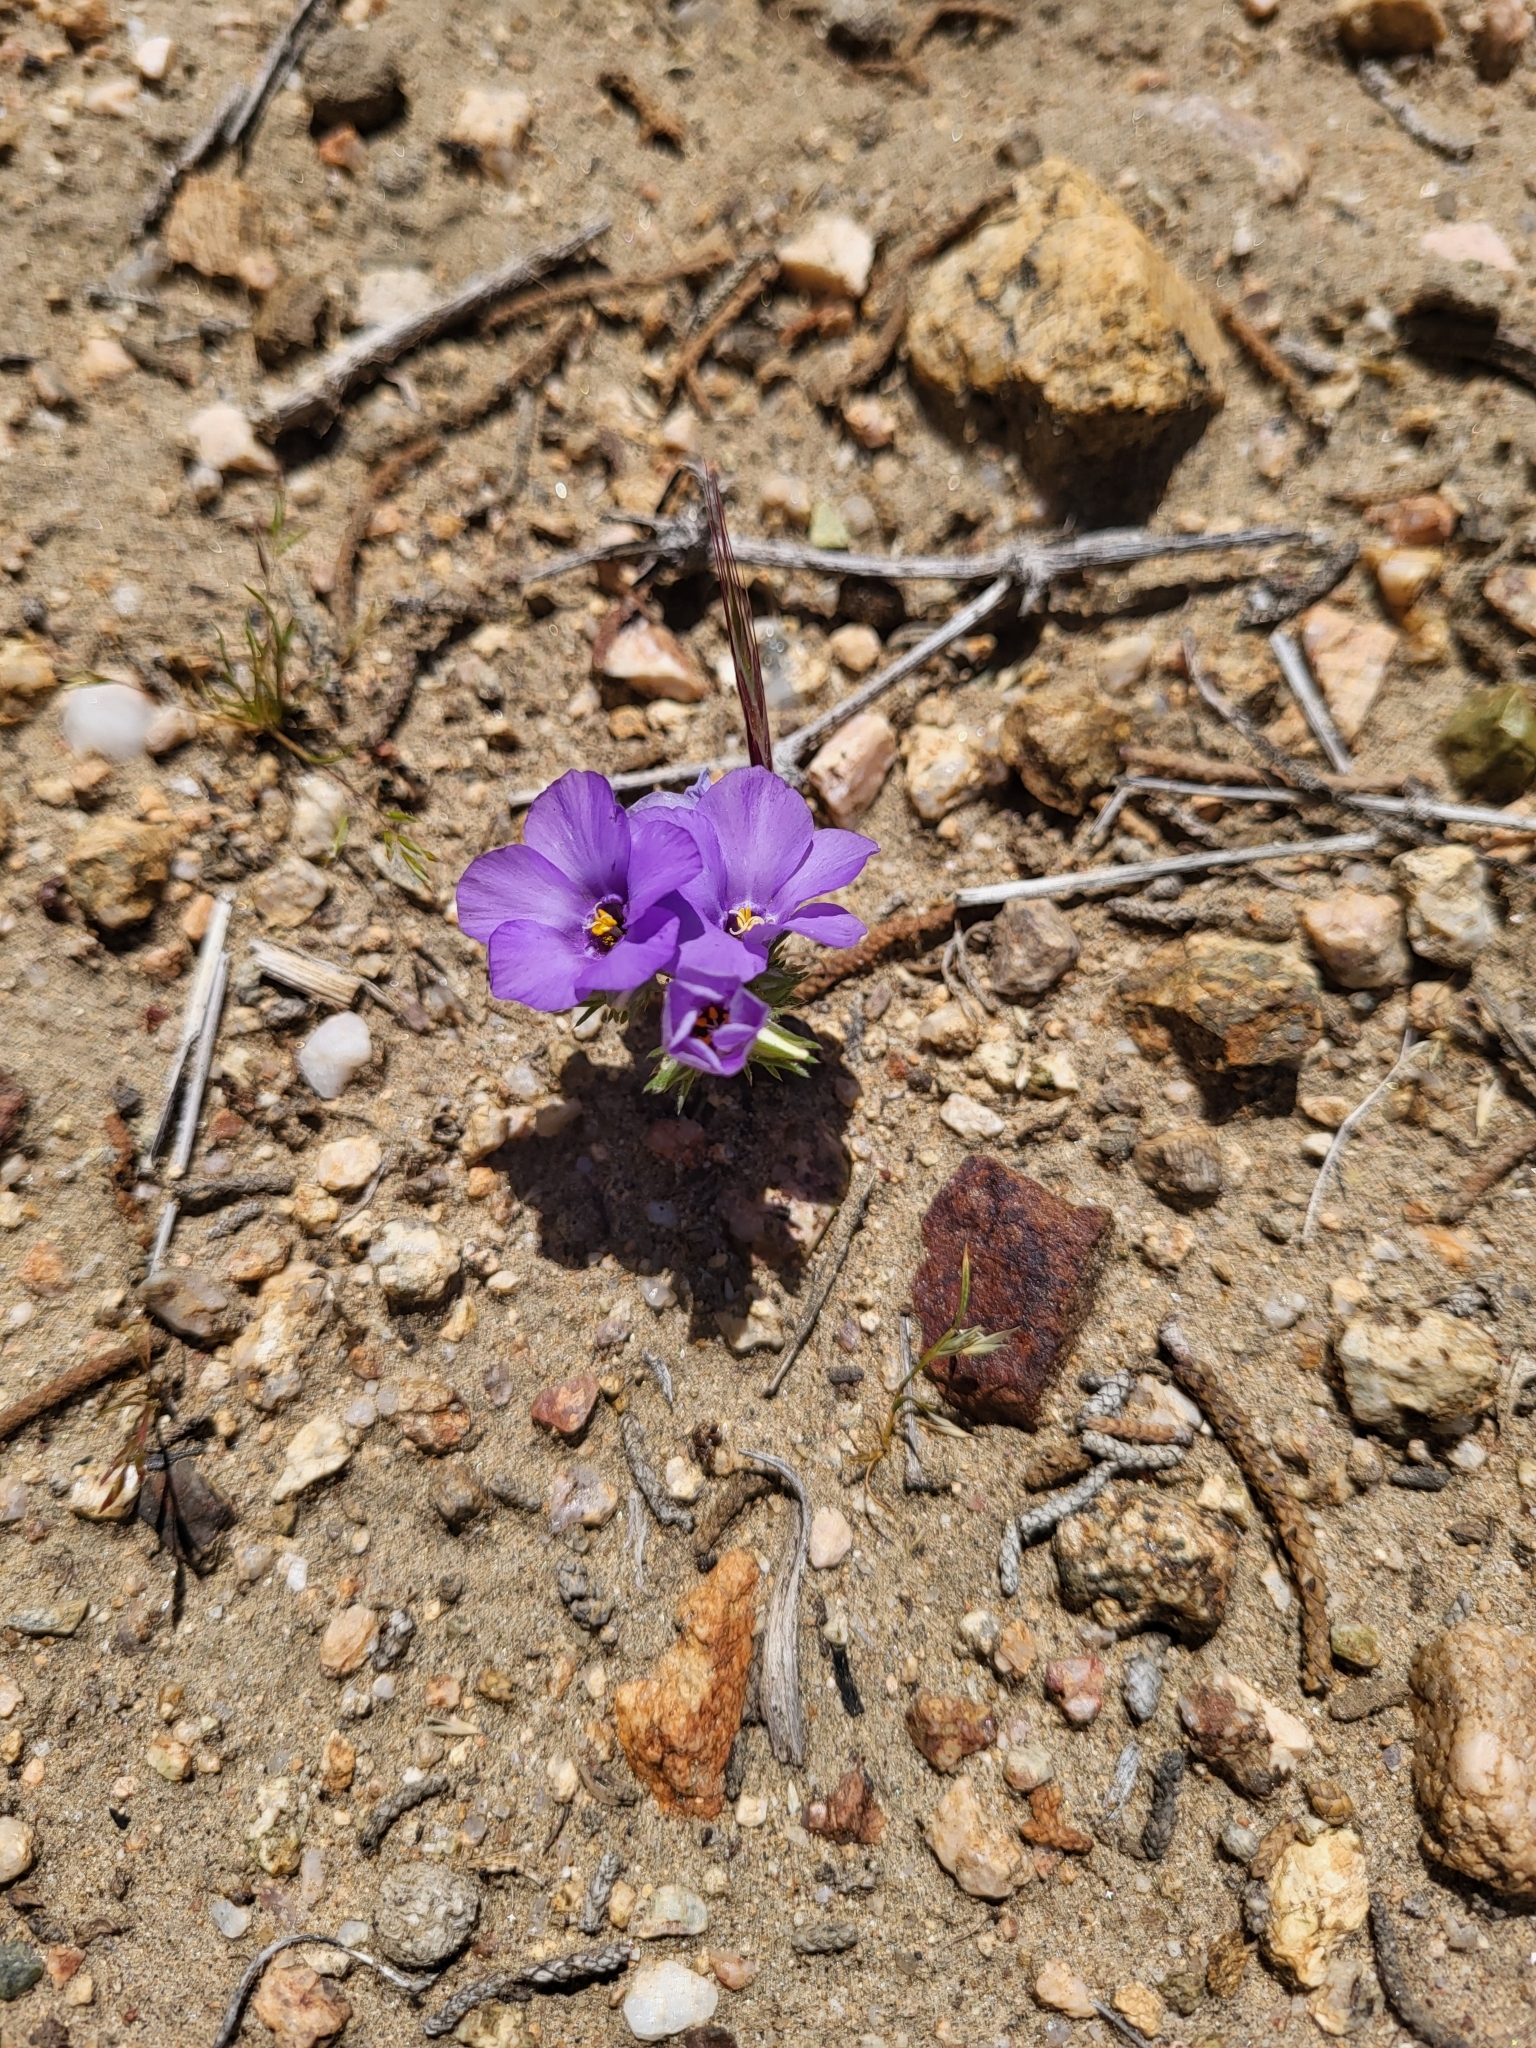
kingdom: Plantae
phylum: Tracheophyta
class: Magnoliopsida
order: Ericales
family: Polemoniaceae
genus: Linanthus
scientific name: Linanthus parryae
